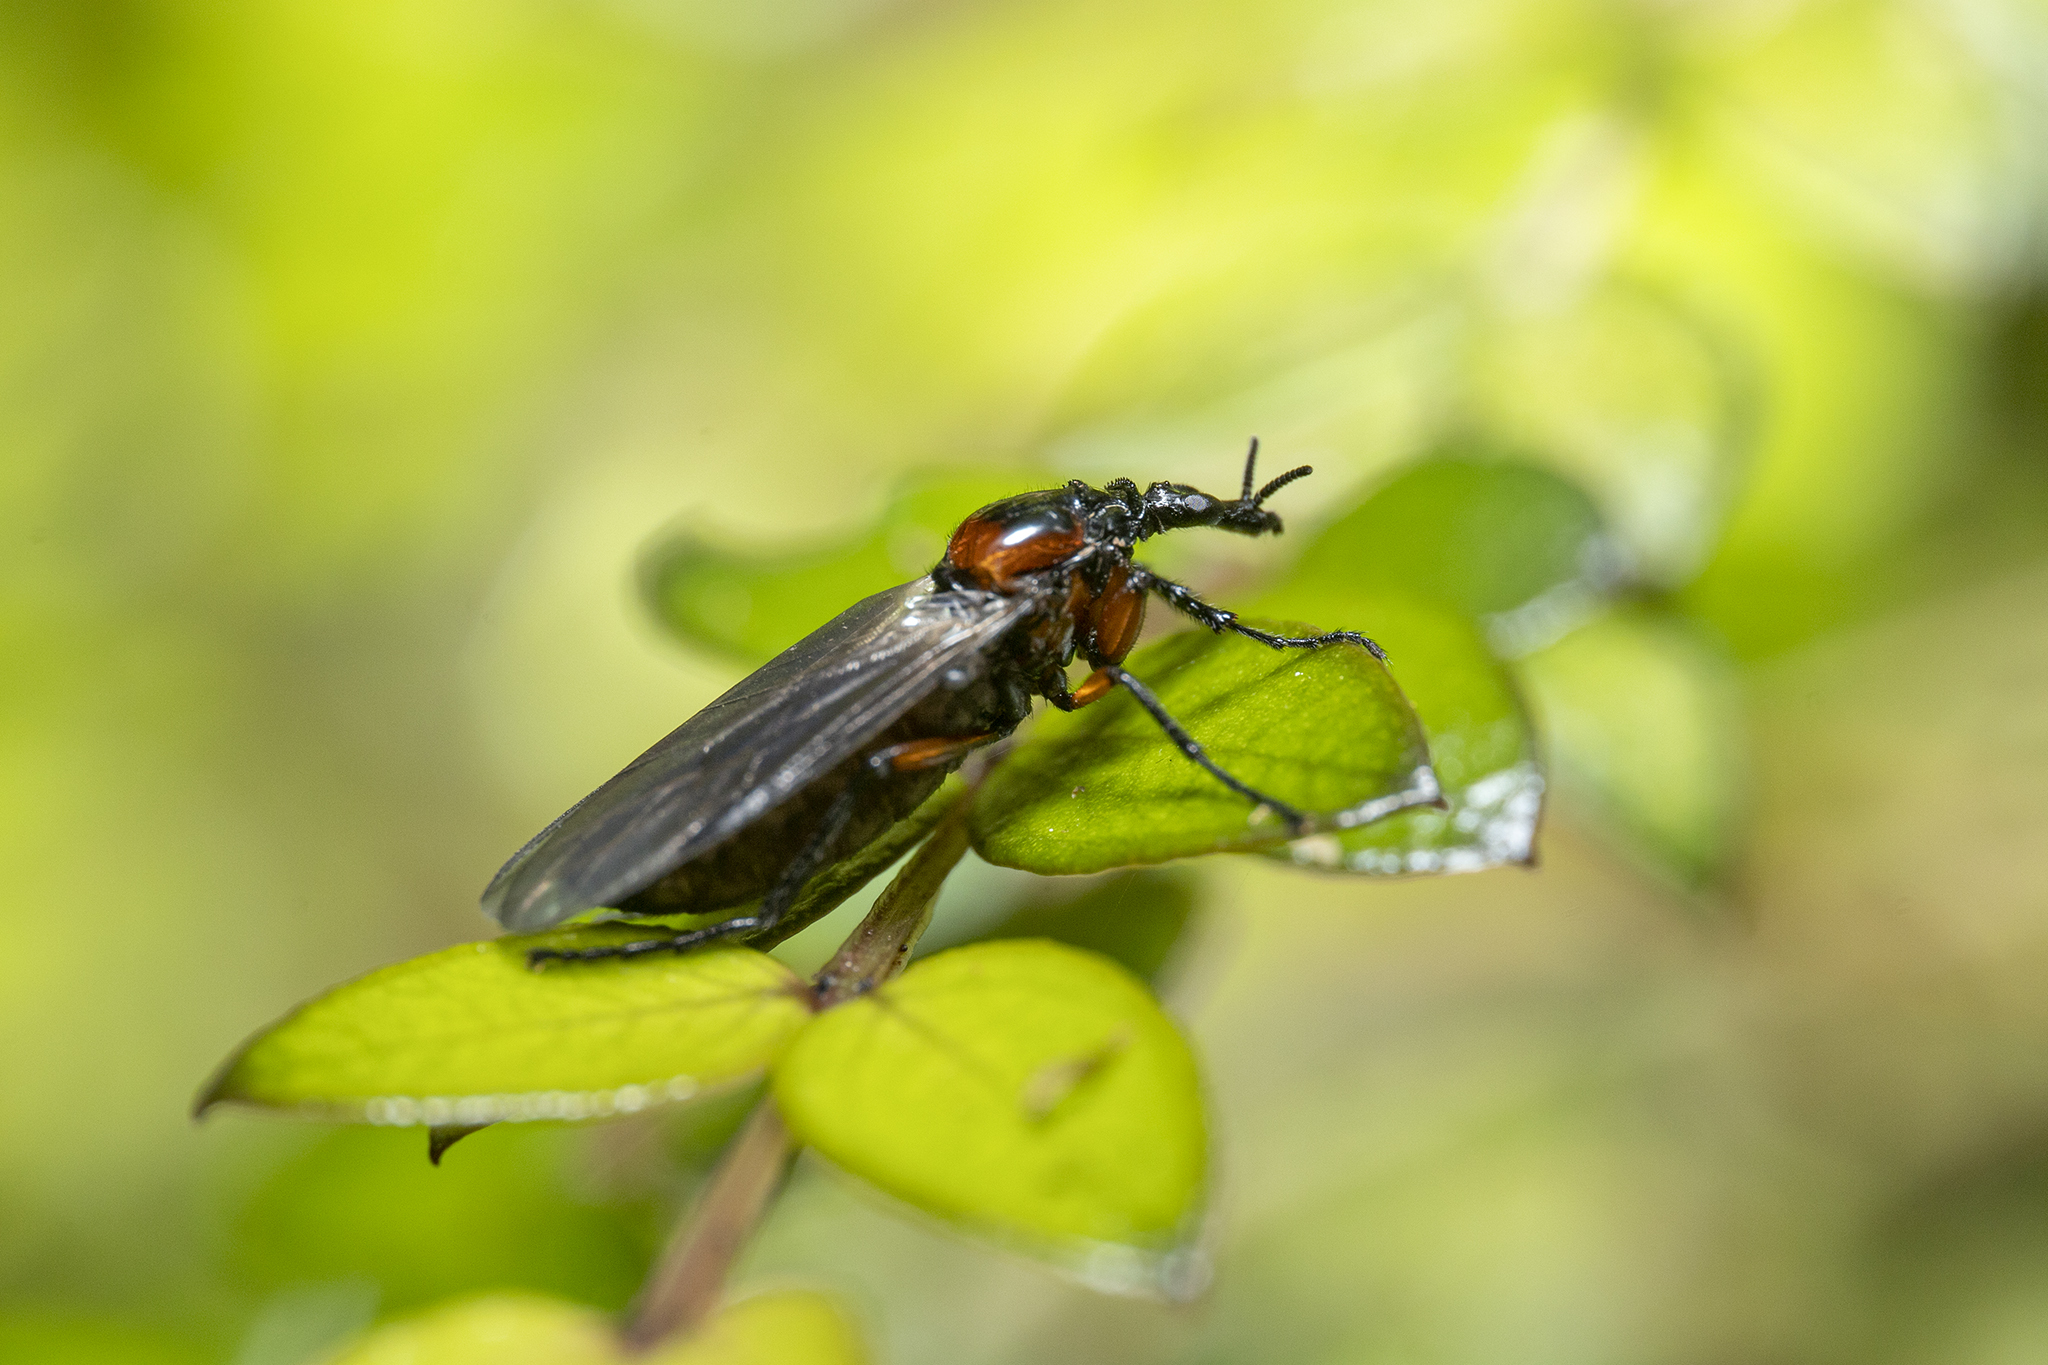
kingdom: Animalia
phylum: Arthropoda
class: Insecta
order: Diptera
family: Bibionidae
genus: Dilophus
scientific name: Dilophus nigrostigma
